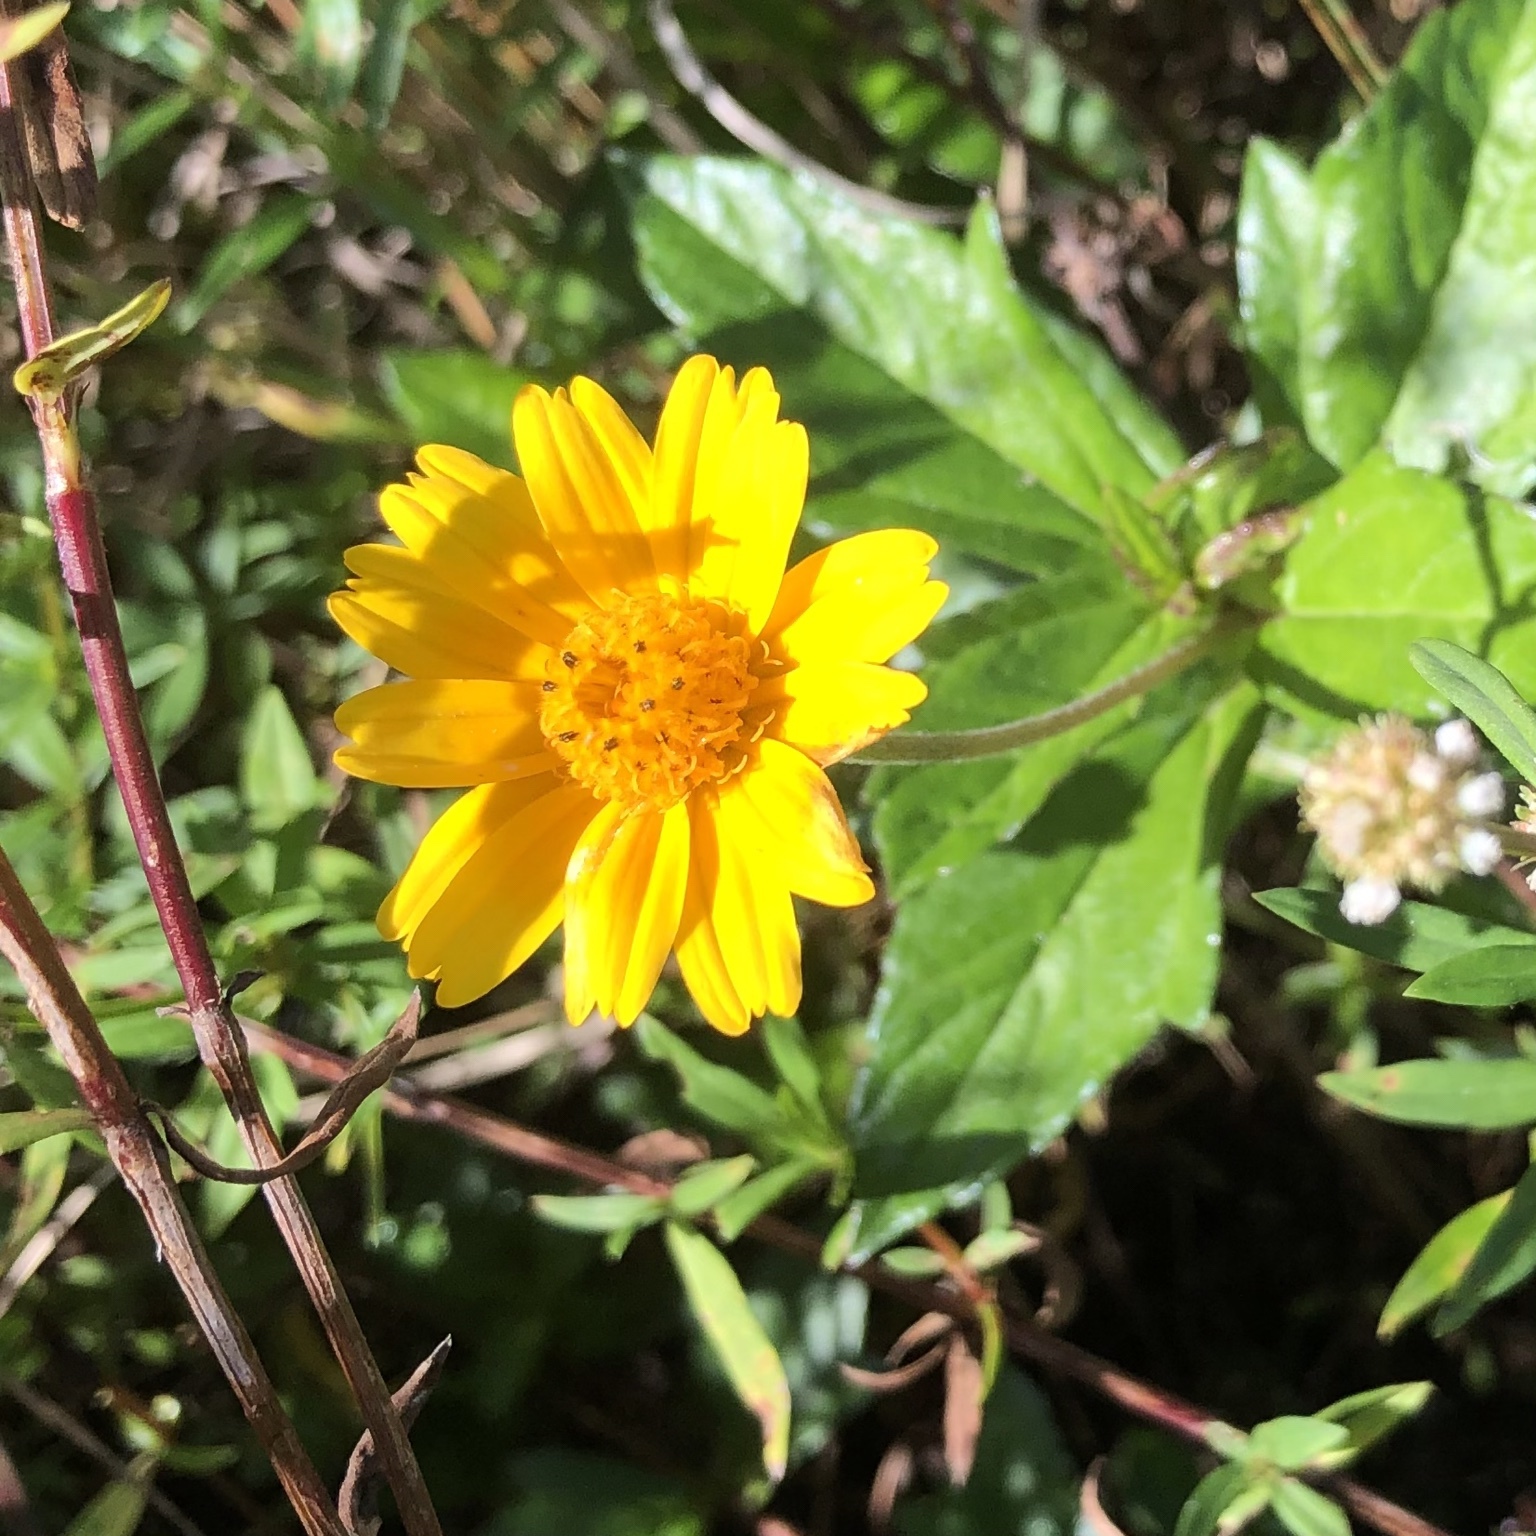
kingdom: Plantae
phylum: Tracheophyta
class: Magnoliopsida
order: Asterales
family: Asteraceae
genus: Sphagneticola
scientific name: Sphagneticola trilobata
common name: Bay biscayne creeping-oxeye
